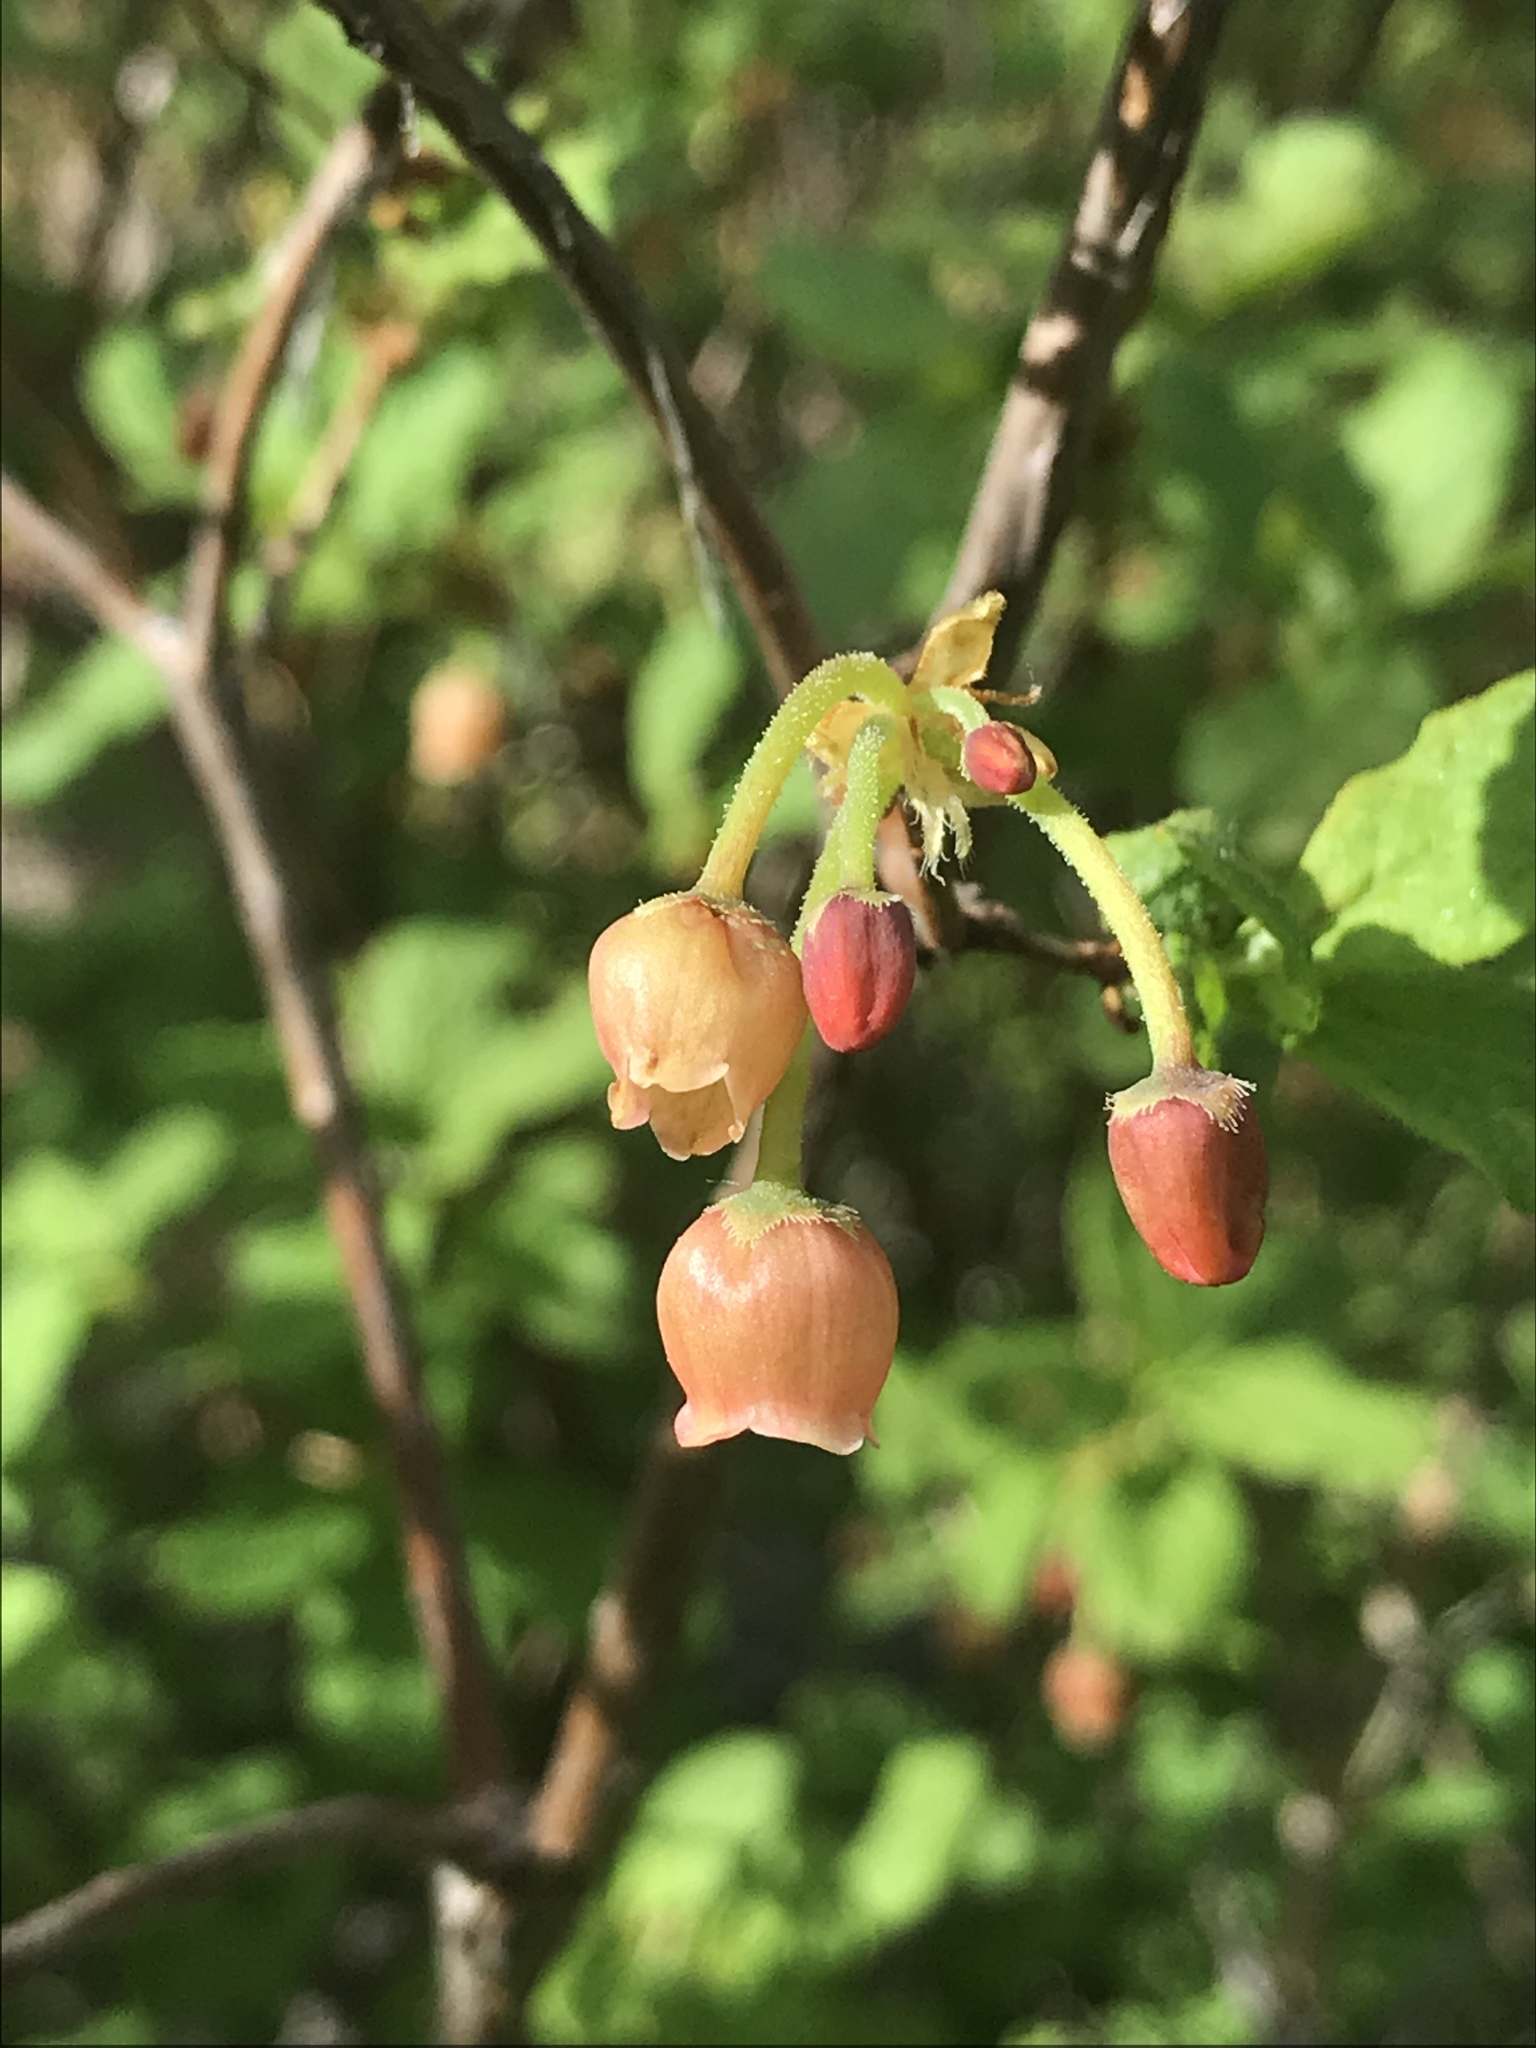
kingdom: Plantae
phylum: Tracheophyta
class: Magnoliopsida
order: Ericales
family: Ericaceae
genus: Rhododendron
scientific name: Rhododendron menziesii
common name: Pacific menziesia
